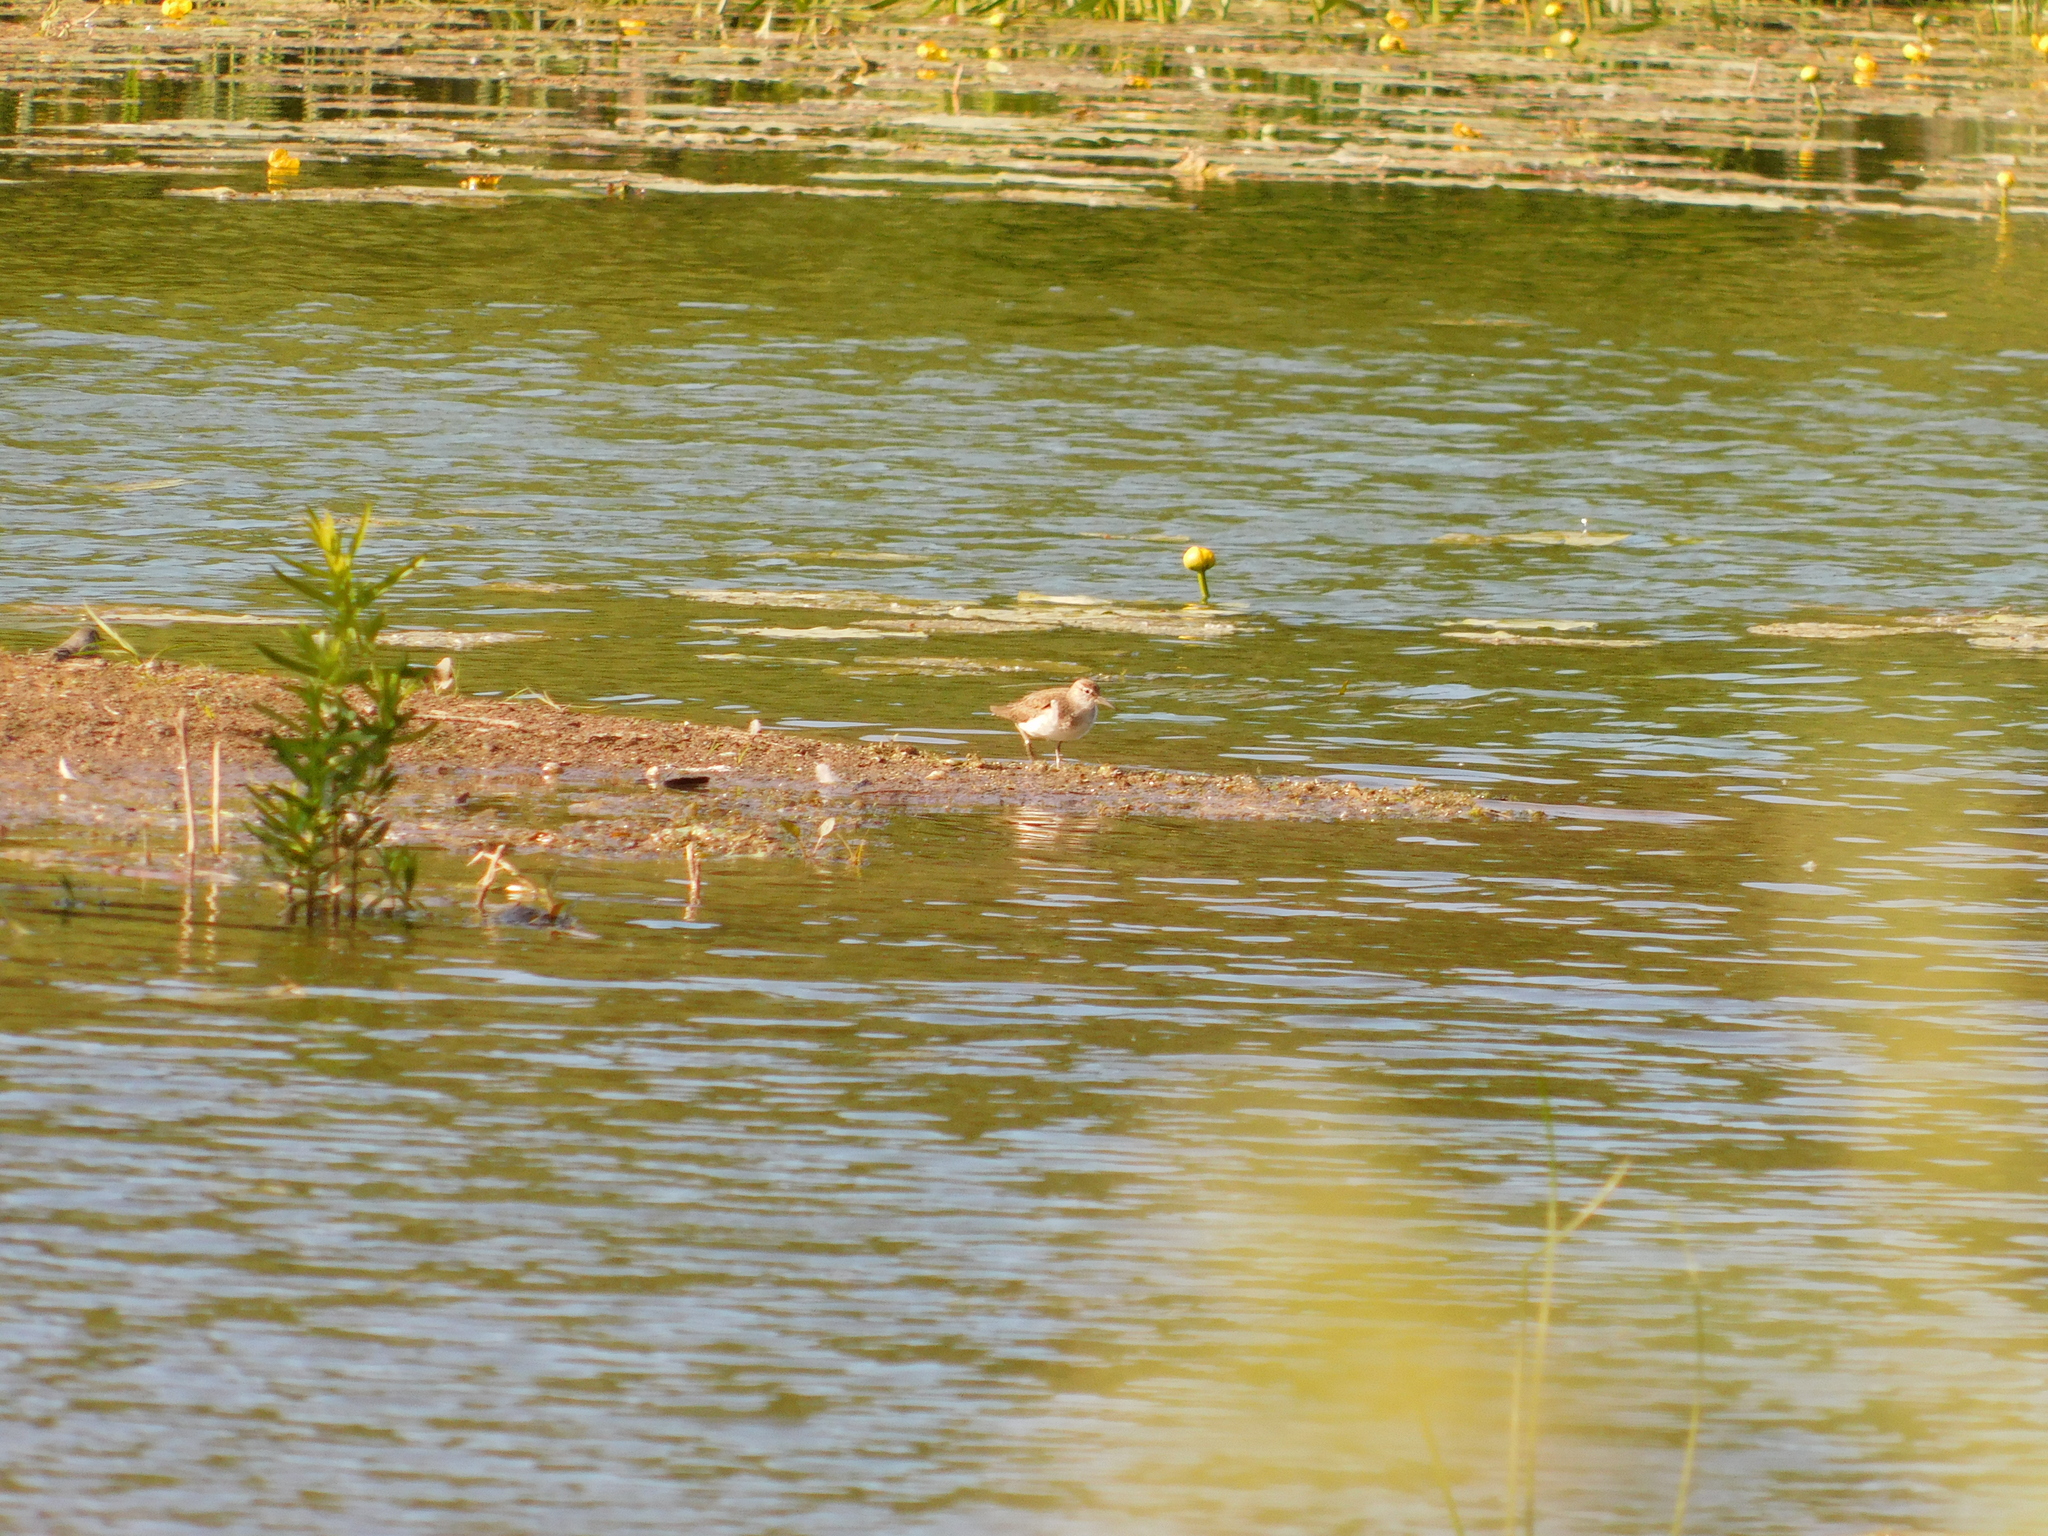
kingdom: Animalia
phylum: Chordata
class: Aves
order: Charadriiformes
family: Scolopacidae
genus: Actitis
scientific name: Actitis hypoleucos
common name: Common sandpiper
